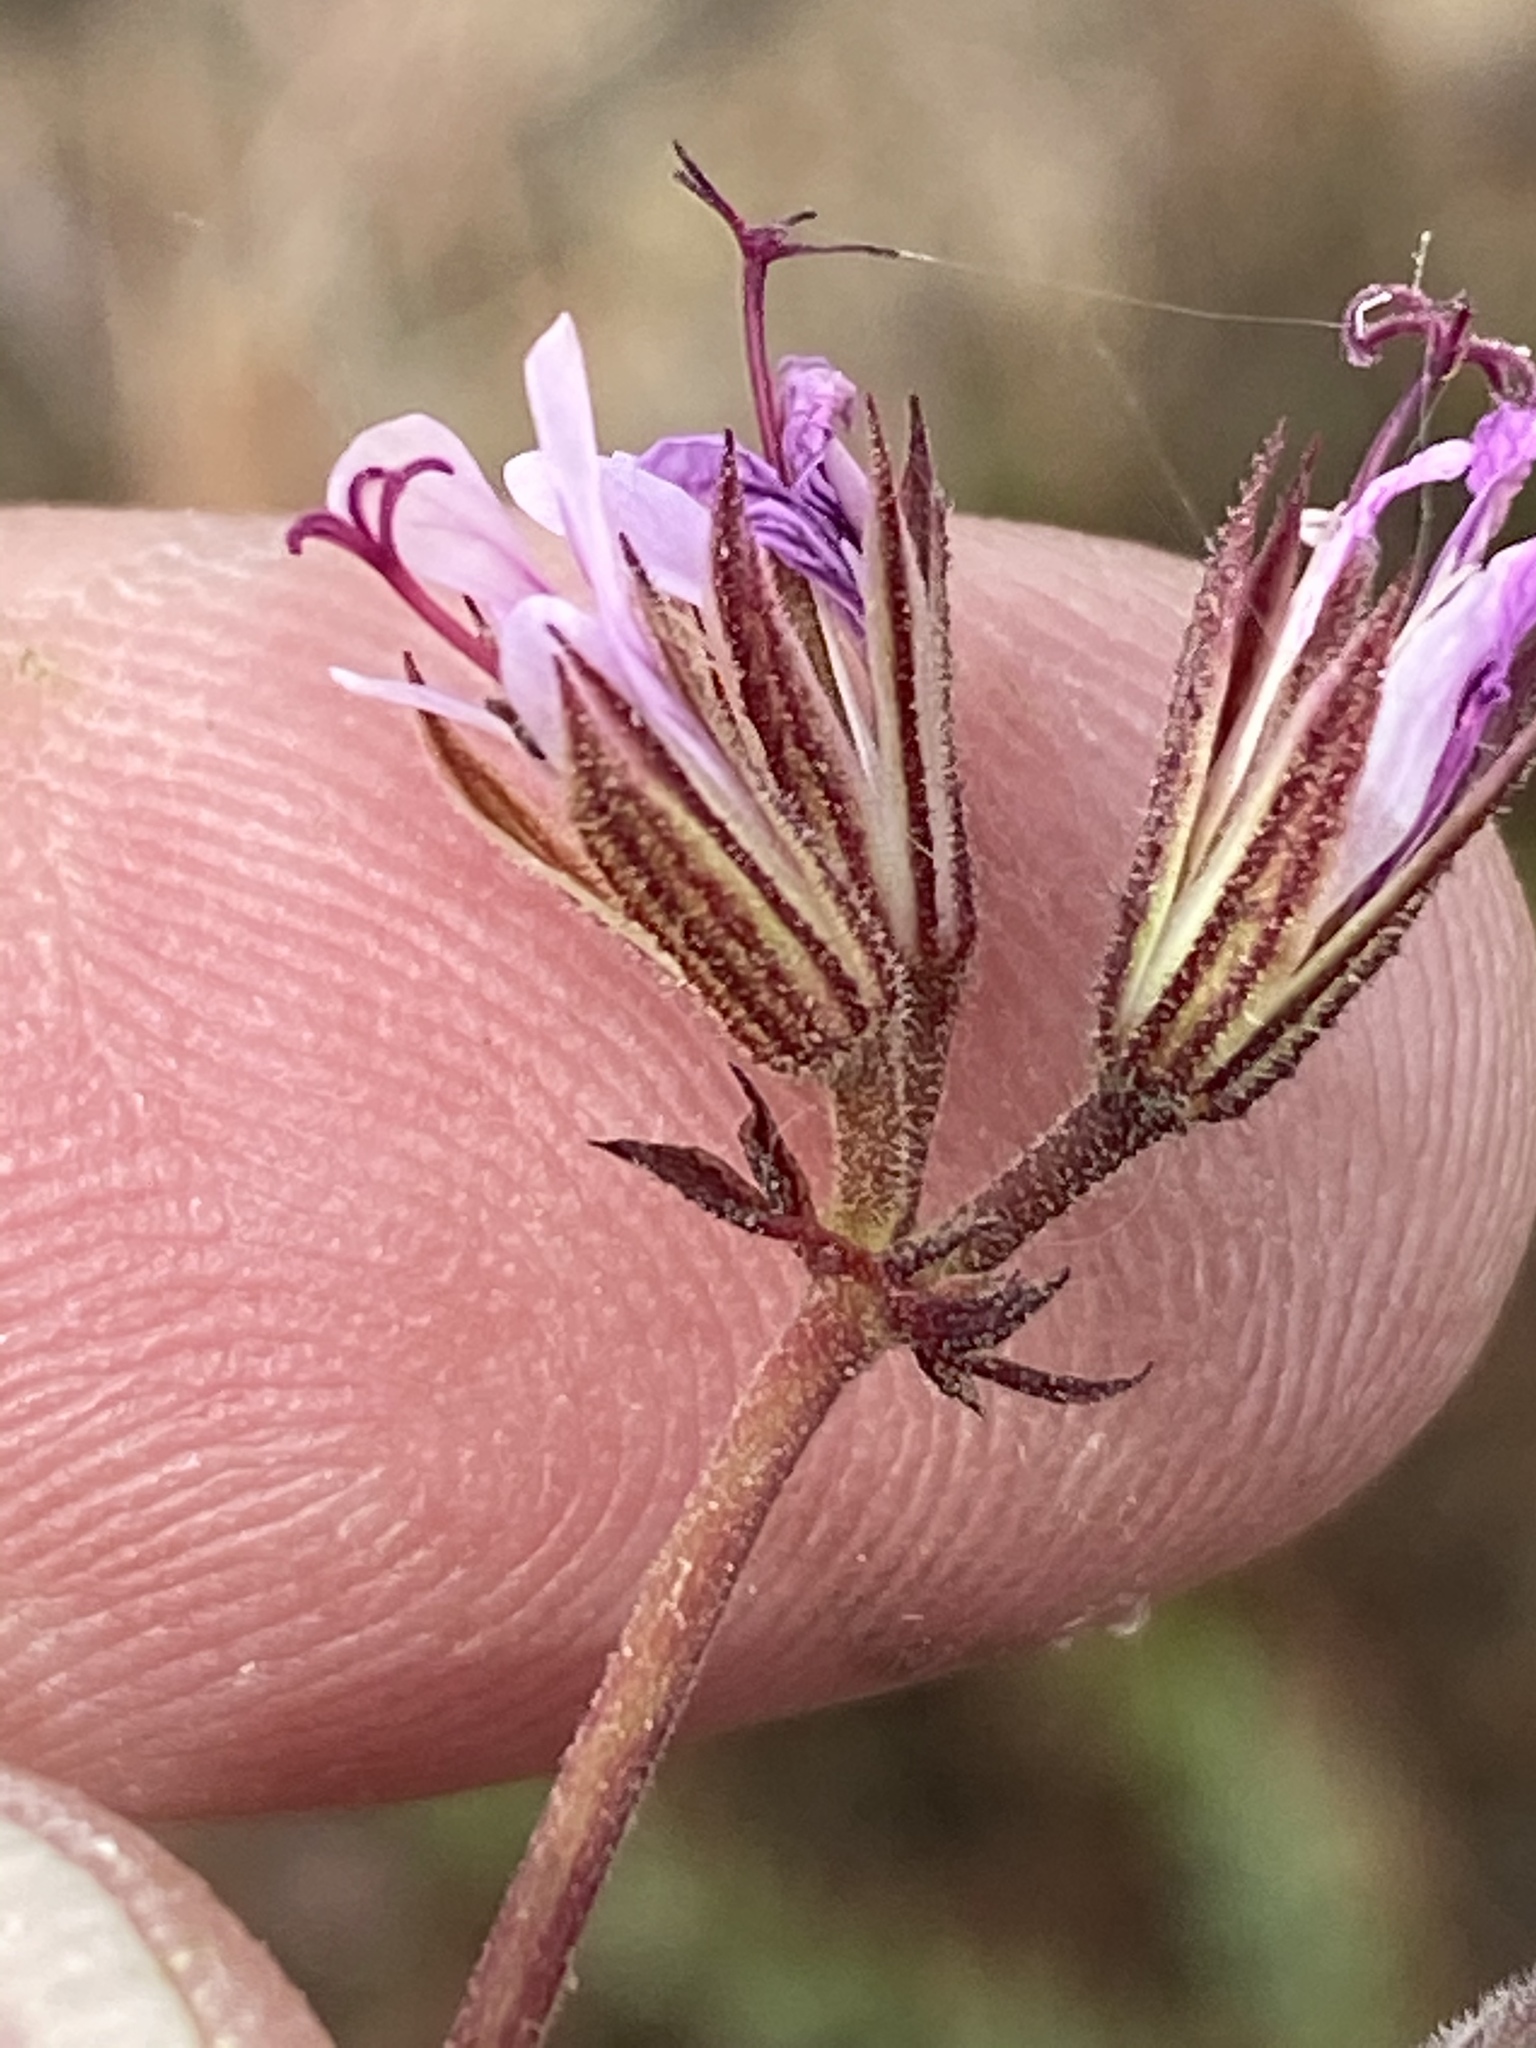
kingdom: Plantae
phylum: Tracheophyta
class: Magnoliopsida
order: Geraniales
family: Geraniaceae
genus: Pelargonium
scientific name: Pelargonium myrrhifolium
